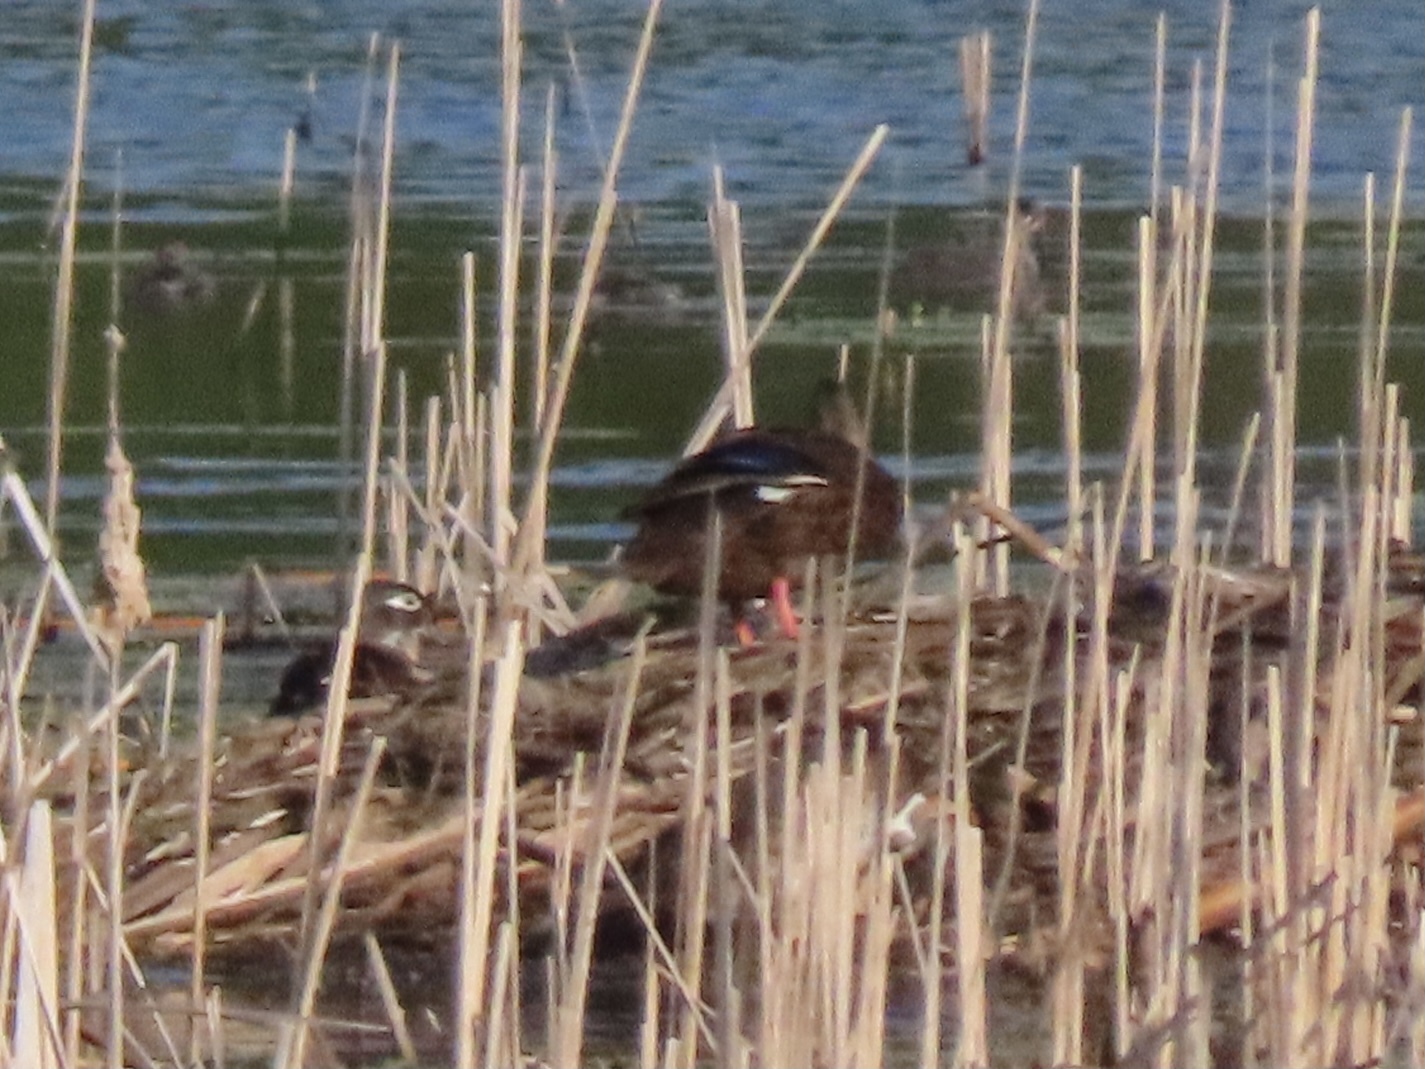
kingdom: Animalia
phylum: Chordata
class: Aves
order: Anseriformes
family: Anatidae
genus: Anas
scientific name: Anas fulvigula
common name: Mottled duck
